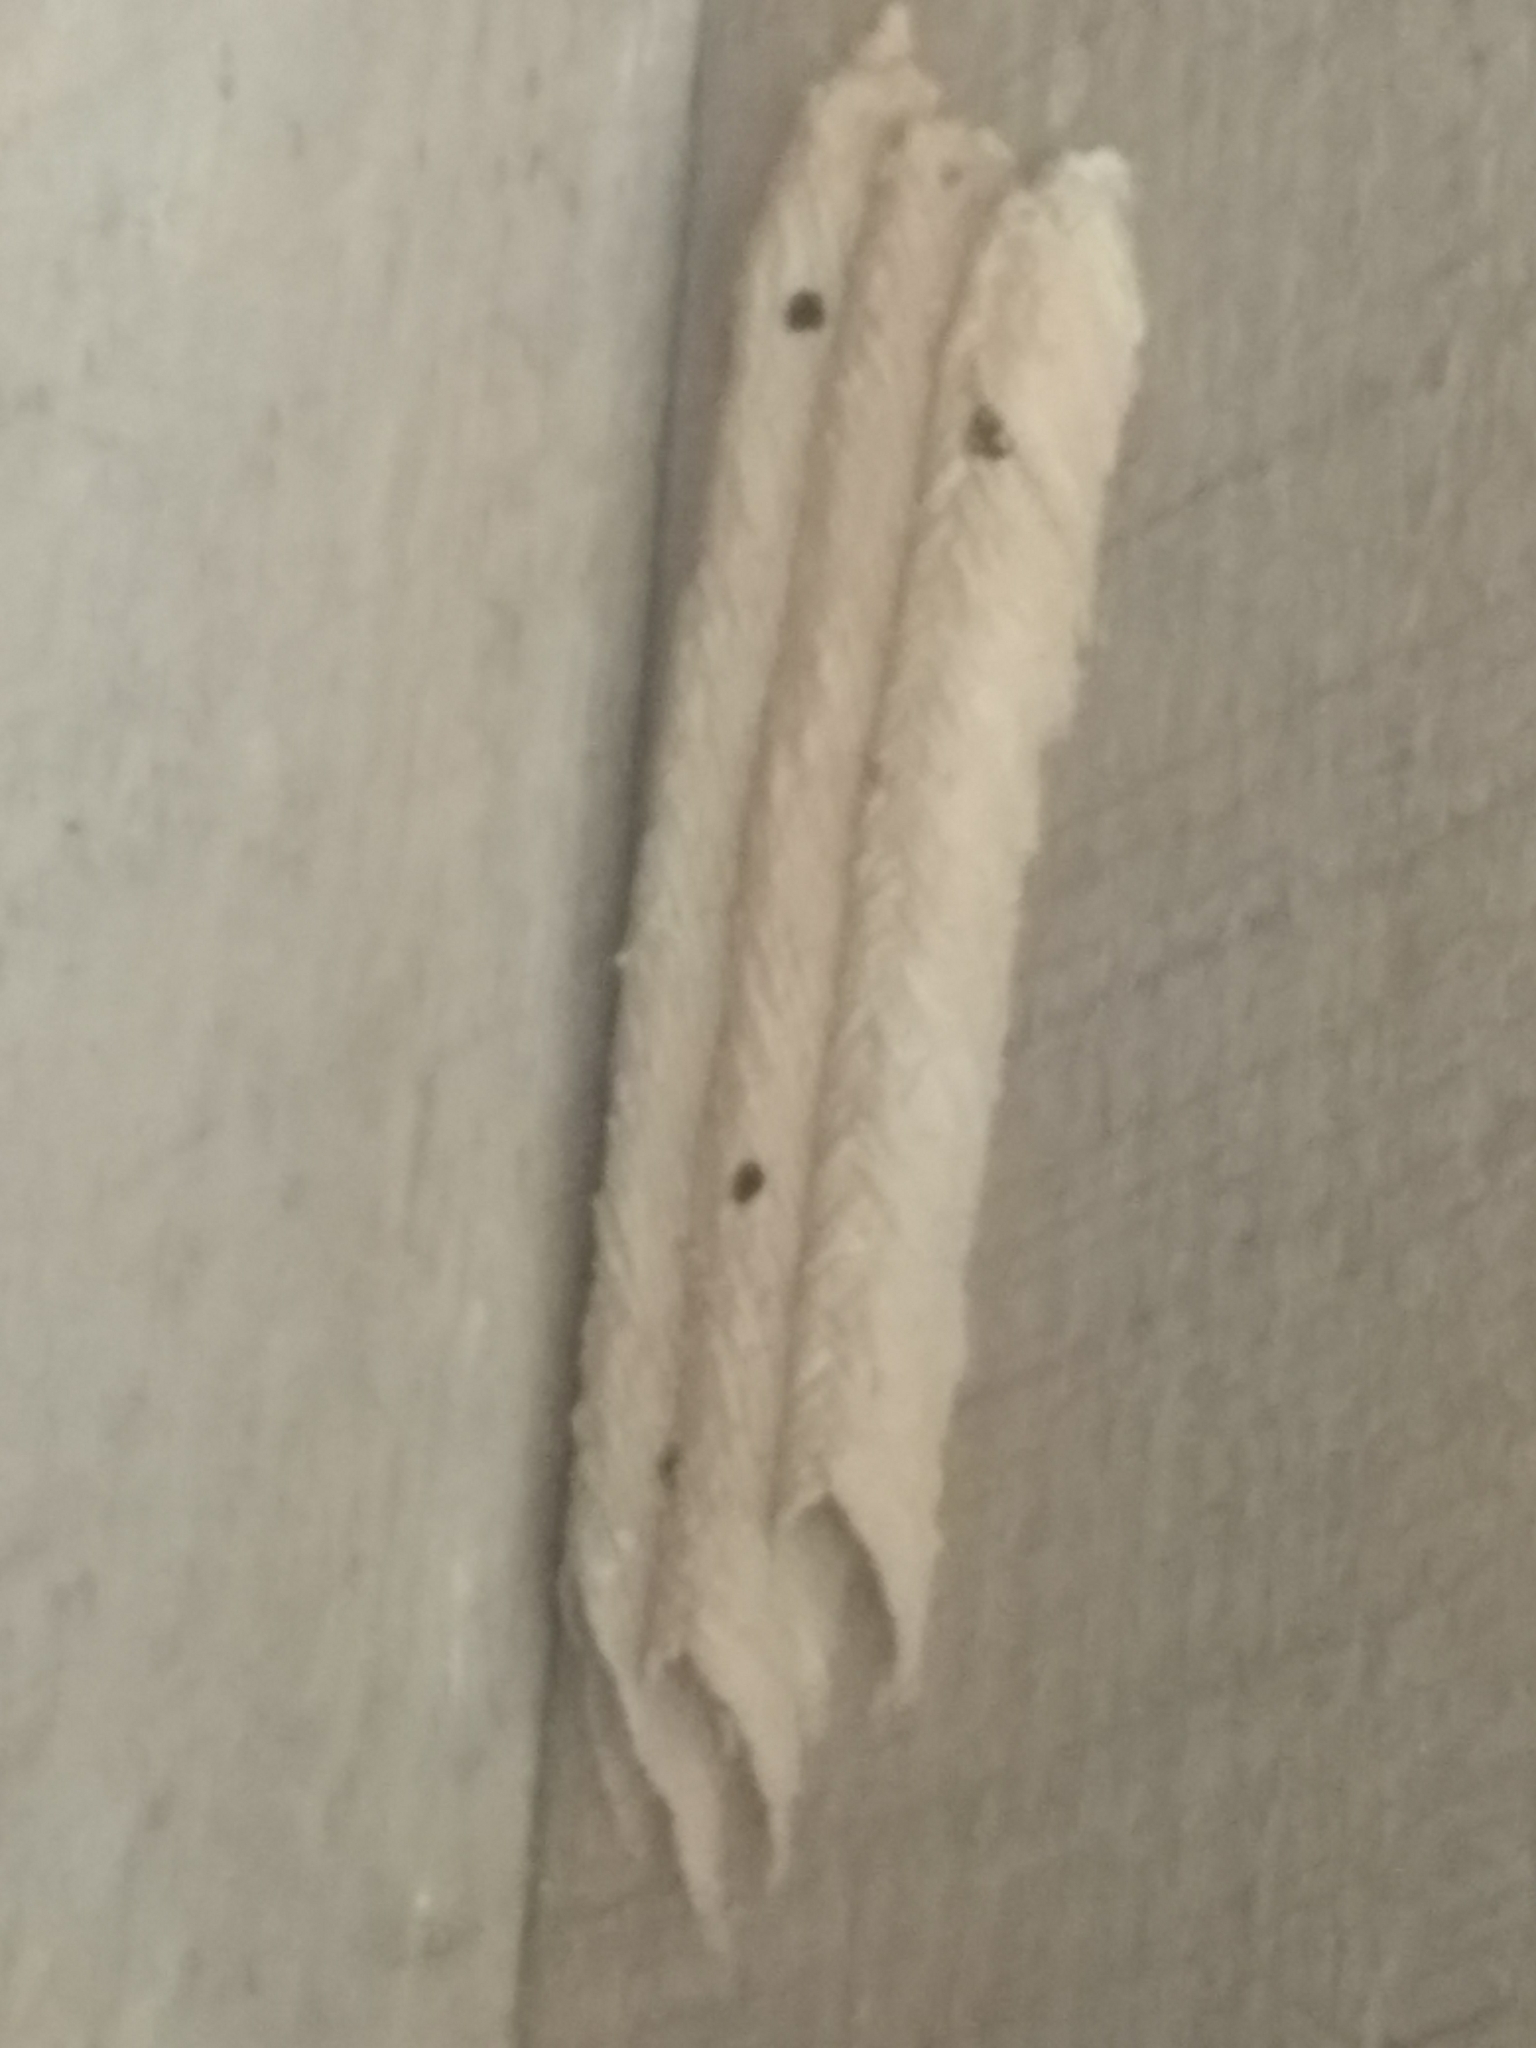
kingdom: Animalia
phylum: Arthropoda
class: Insecta
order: Hymenoptera
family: Crabronidae
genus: Trypoxylon
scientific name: Trypoxylon politum
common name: Organ-pipe mud-dauber wasp
